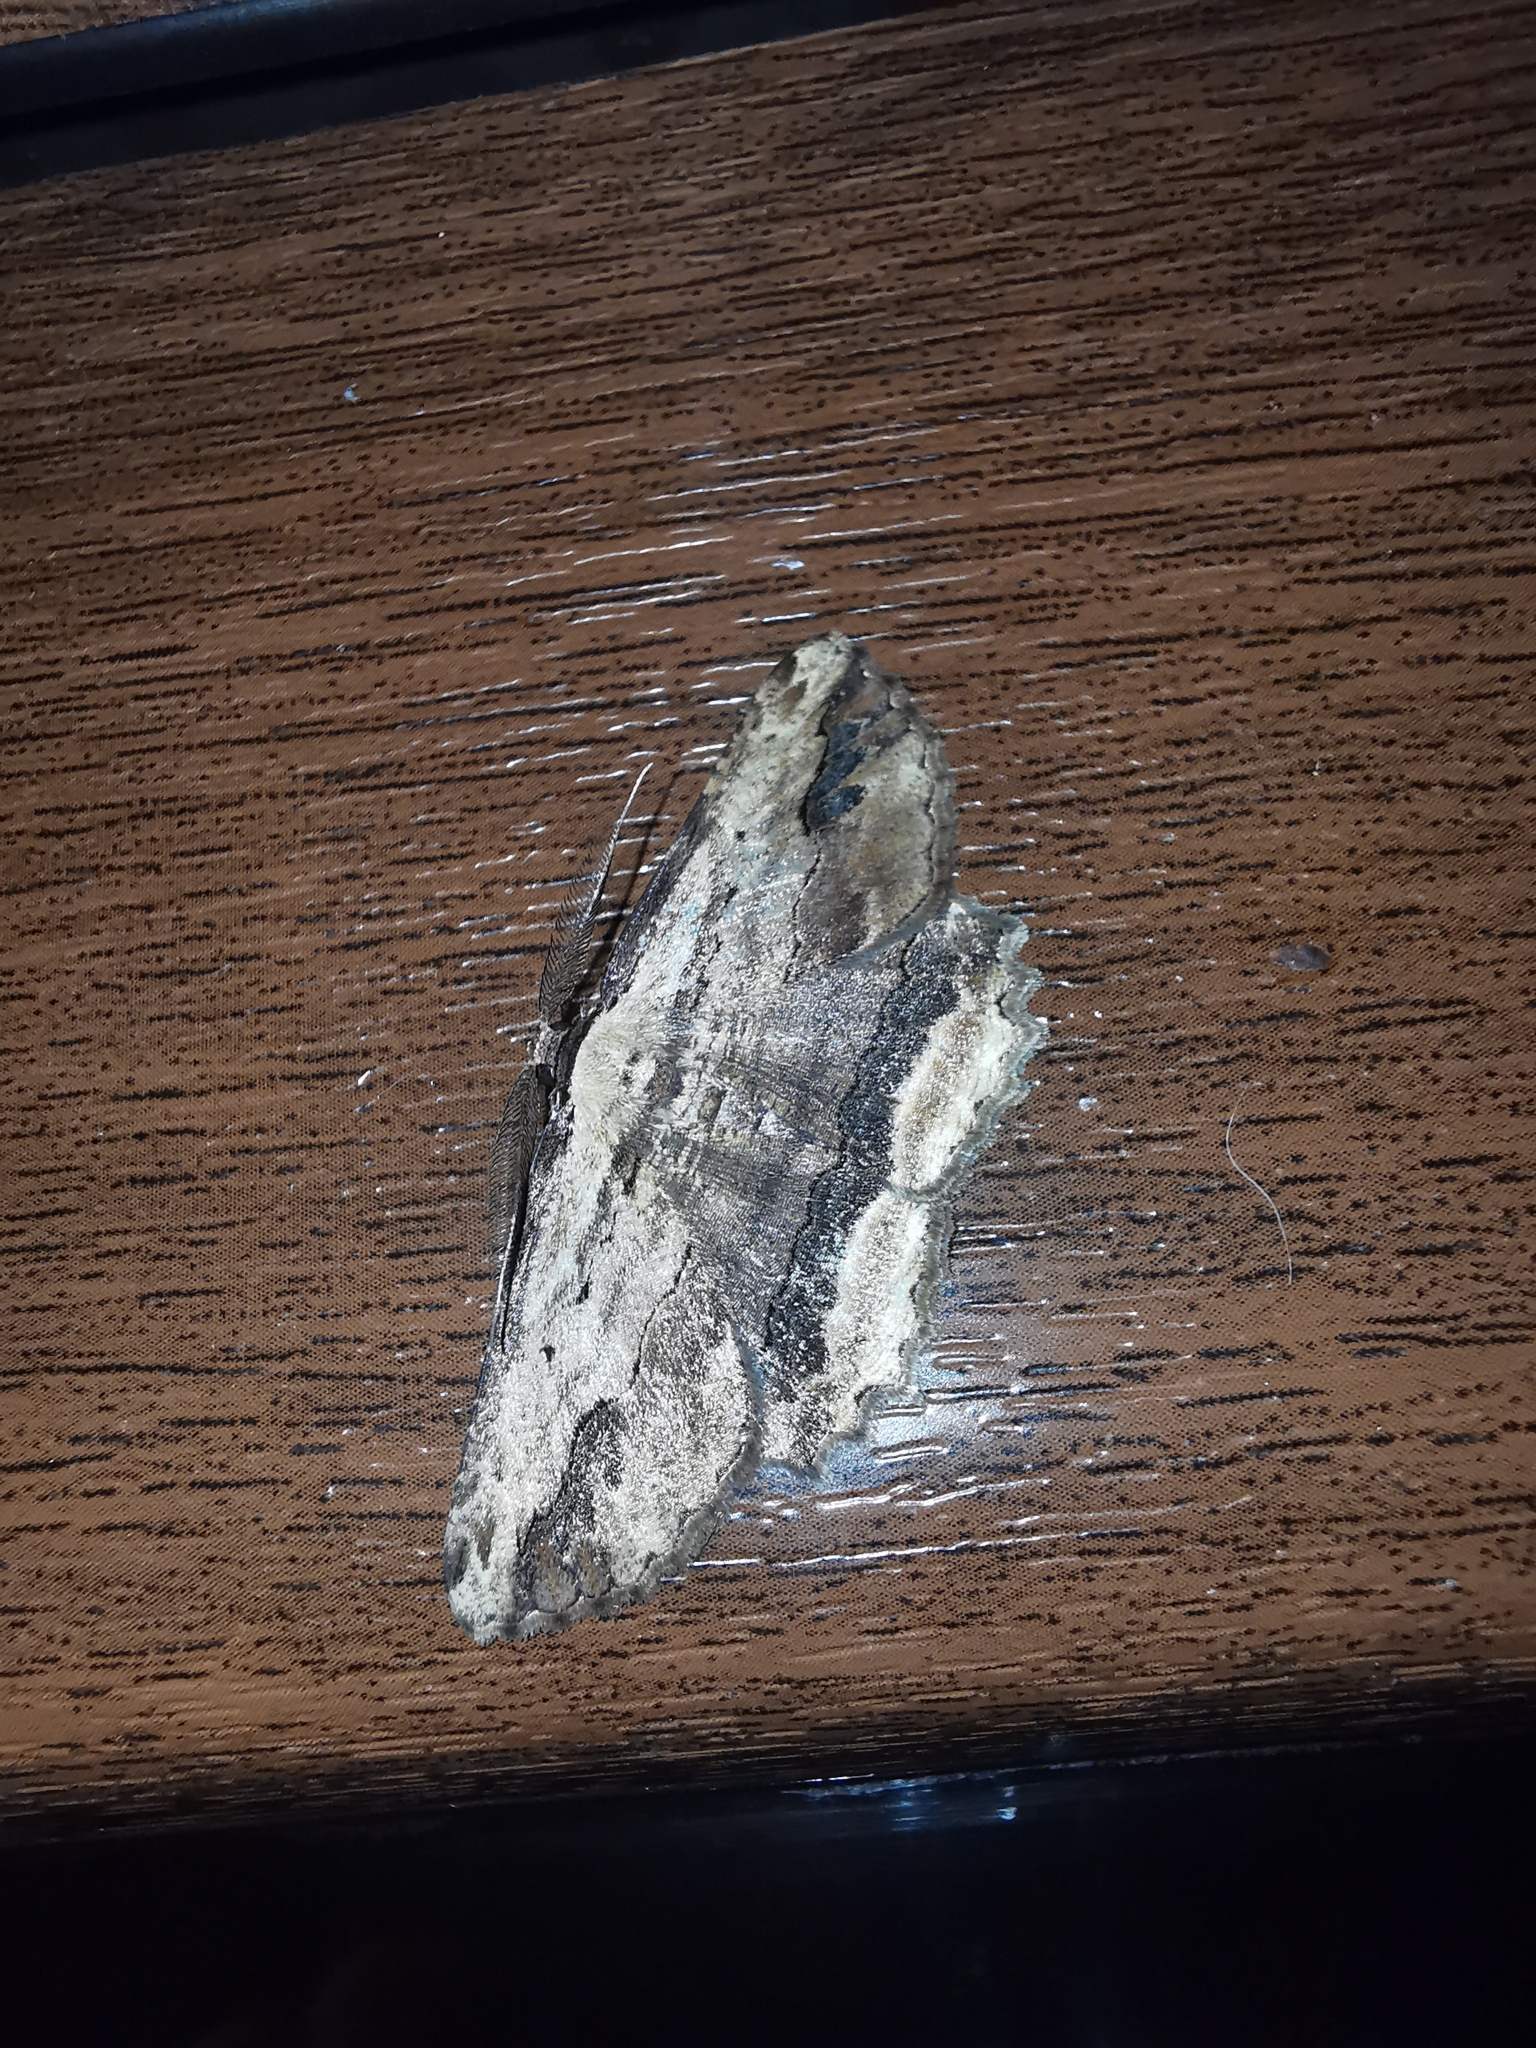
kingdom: Animalia
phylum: Arthropoda
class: Insecta
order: Lepidoptera
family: Geometridae
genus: Menophra
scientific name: Menophra abruptaria
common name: Waved umber
